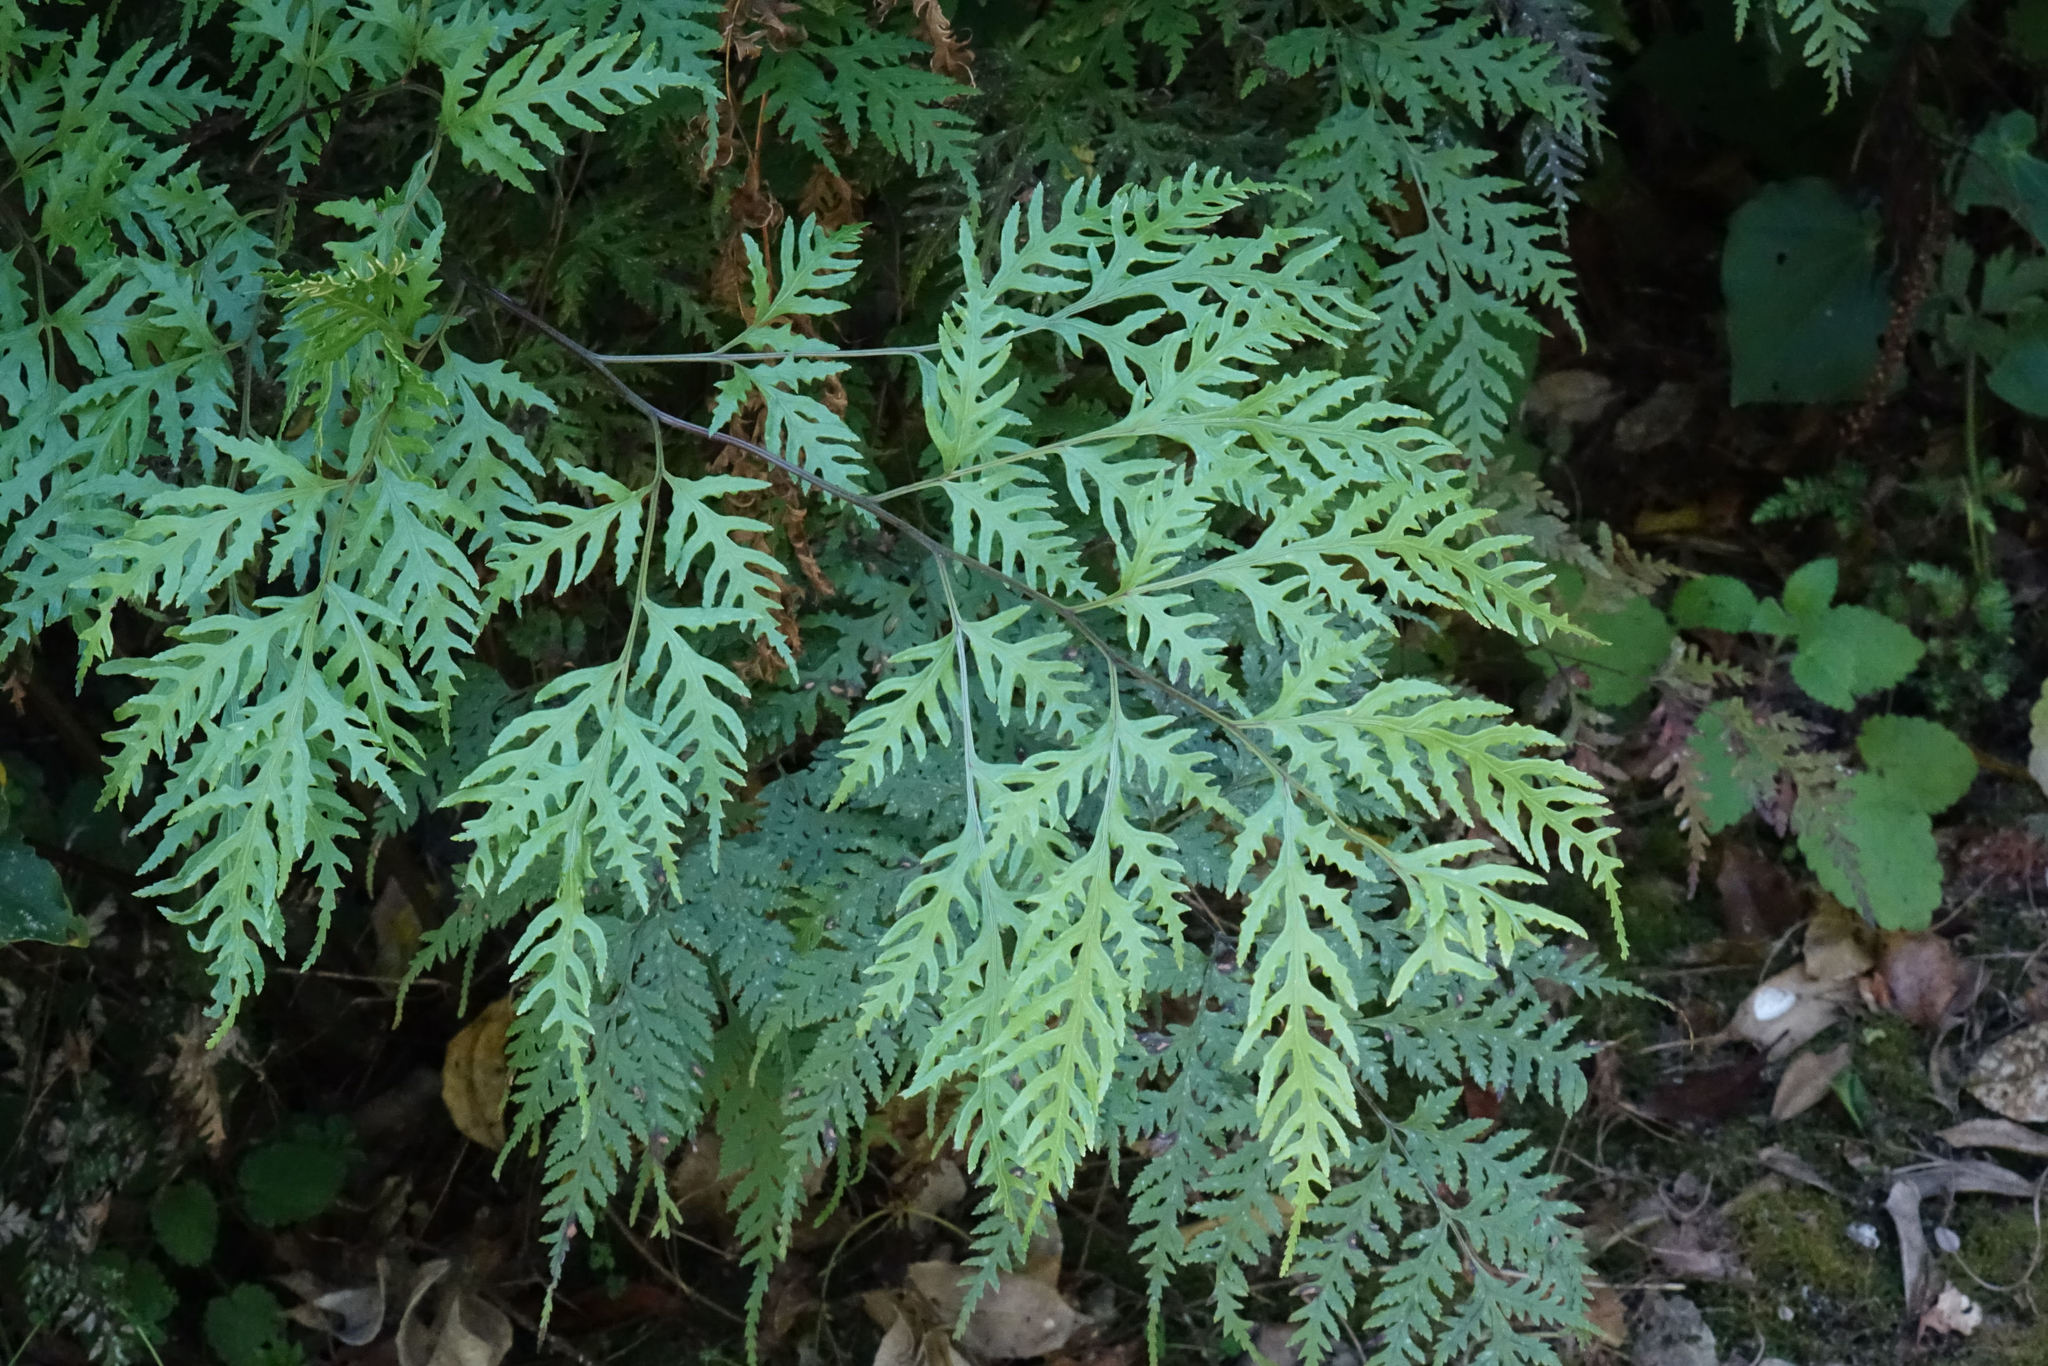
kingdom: Plantae
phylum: Tracheophyta
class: Polypodiopsida
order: Polypodiales
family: Pteridaceae
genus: Pteris
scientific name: Pteris macilenta
